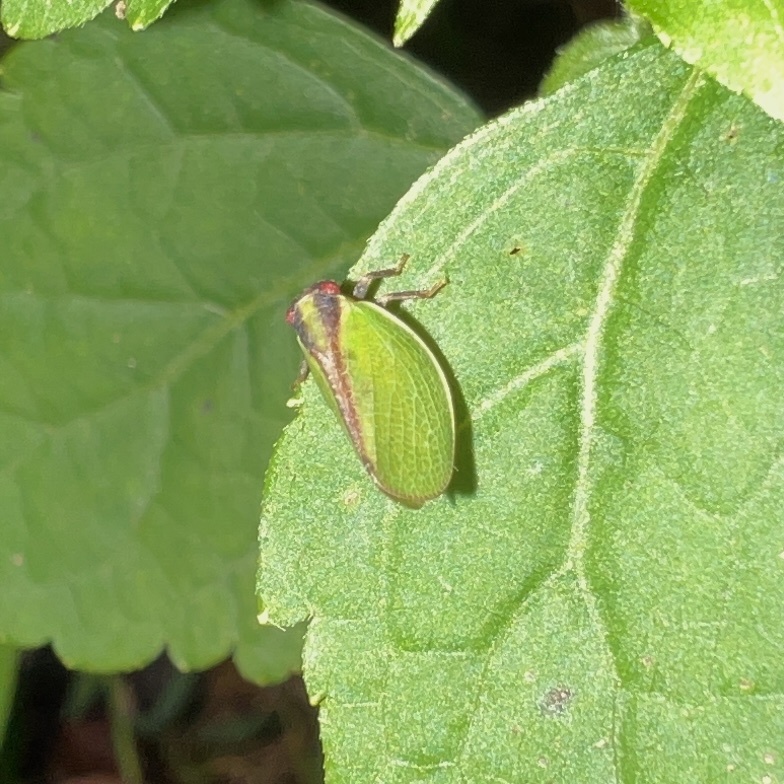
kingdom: Animalia
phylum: Arthropoda
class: Insecta
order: Hemiptera
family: Acanaloniidae
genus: Acanalonia
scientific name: Acanalonia bivittata
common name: Two-striped planthopper
